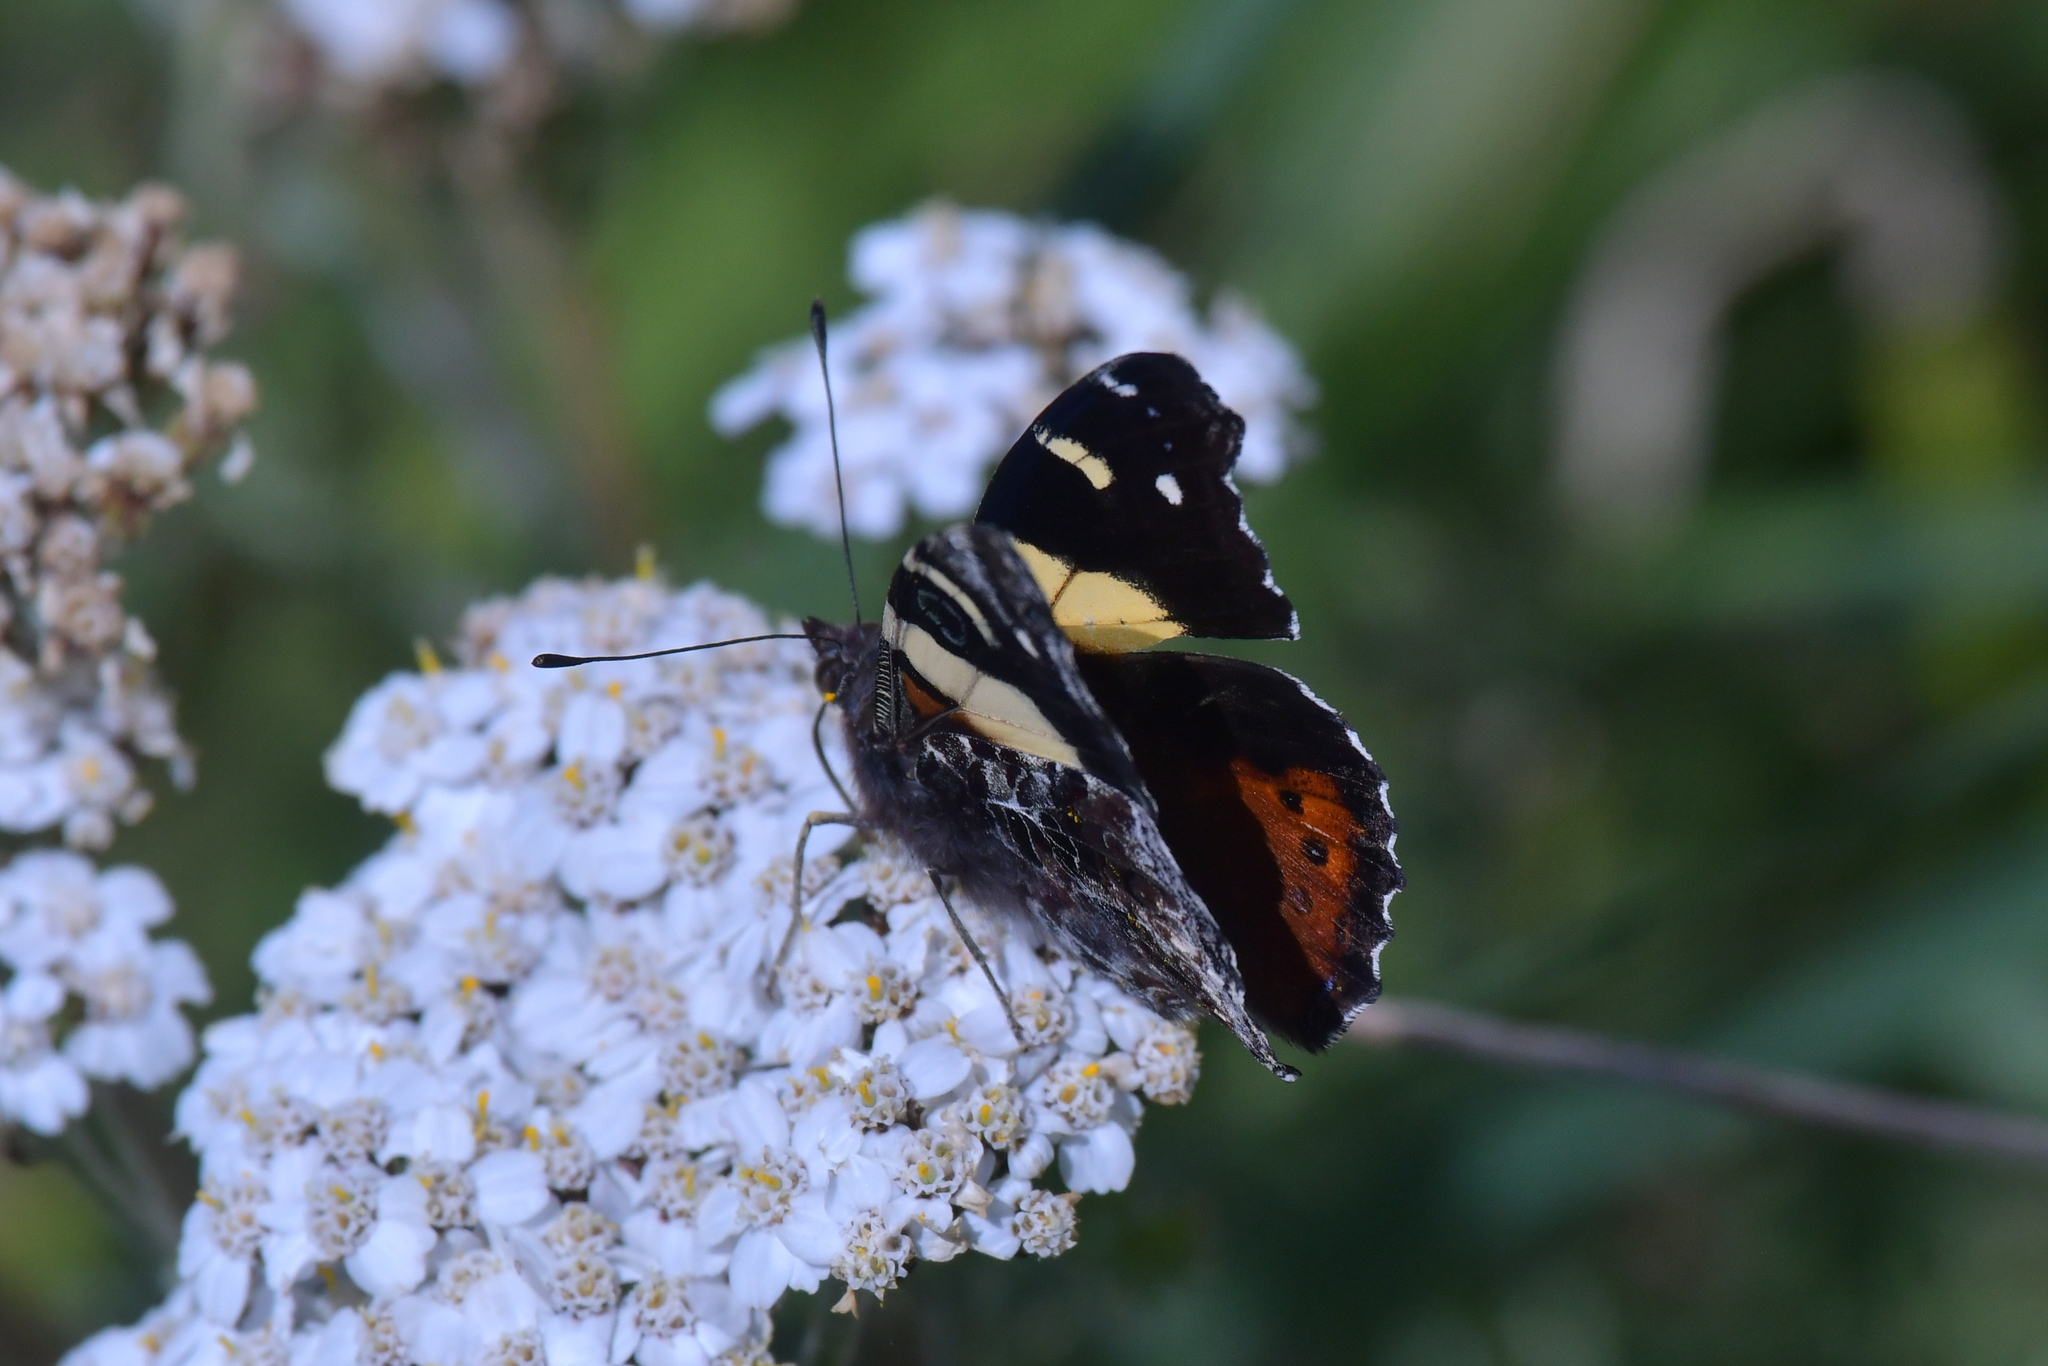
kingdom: Animalia
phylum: Arthropoda
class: Insecta
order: Lepidoptera
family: Nymphalidae
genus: Vanessa
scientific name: Vanessa itea
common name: Yellow admiral
